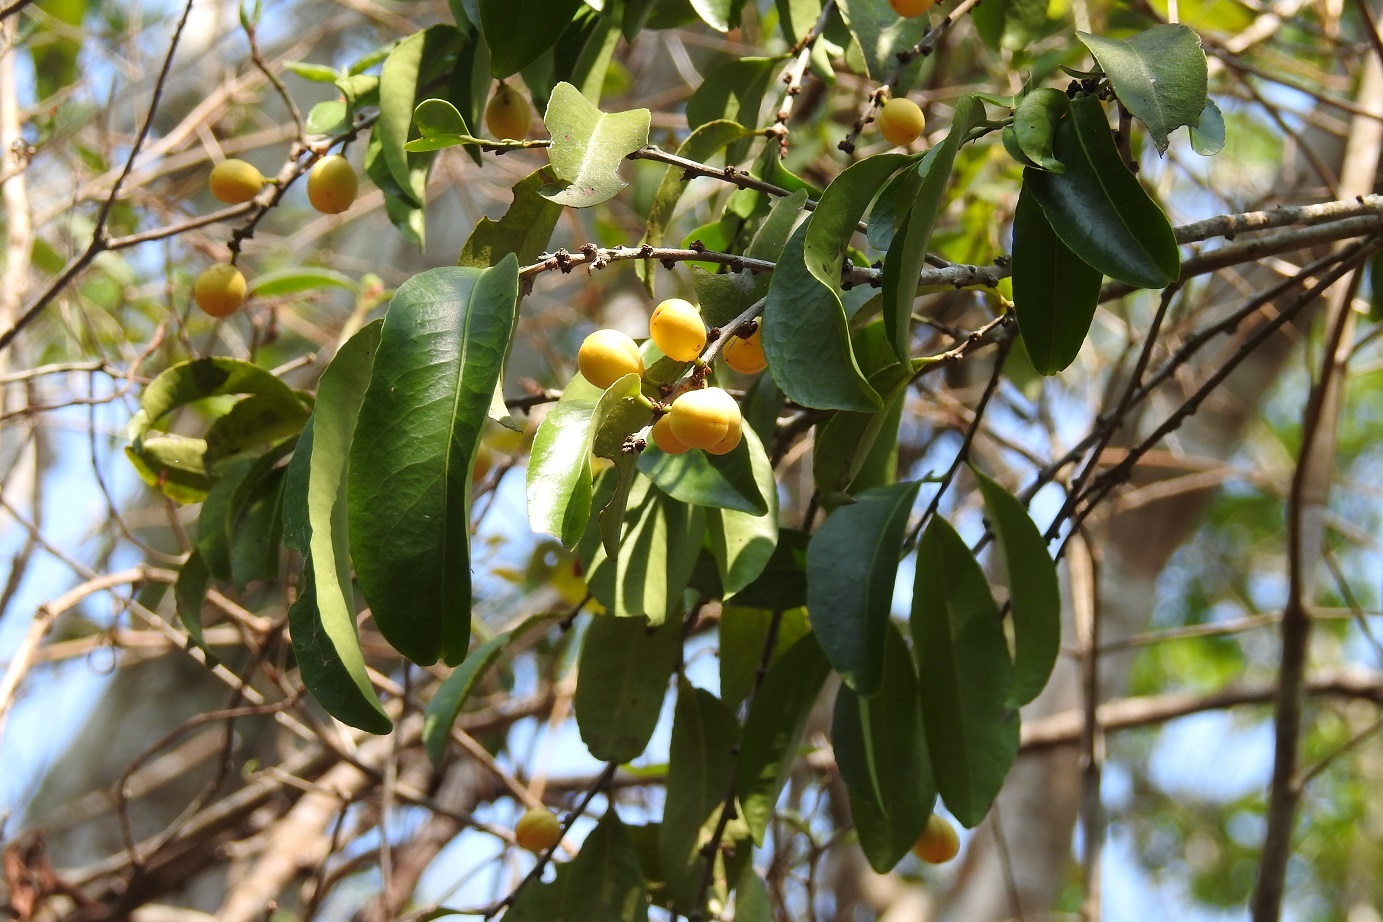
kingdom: Plantae
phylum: Tracheophyta
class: Magnoliopsida
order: Celastrales
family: Celastraceae
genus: Monteverdia
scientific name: Monteverdia stipitata
